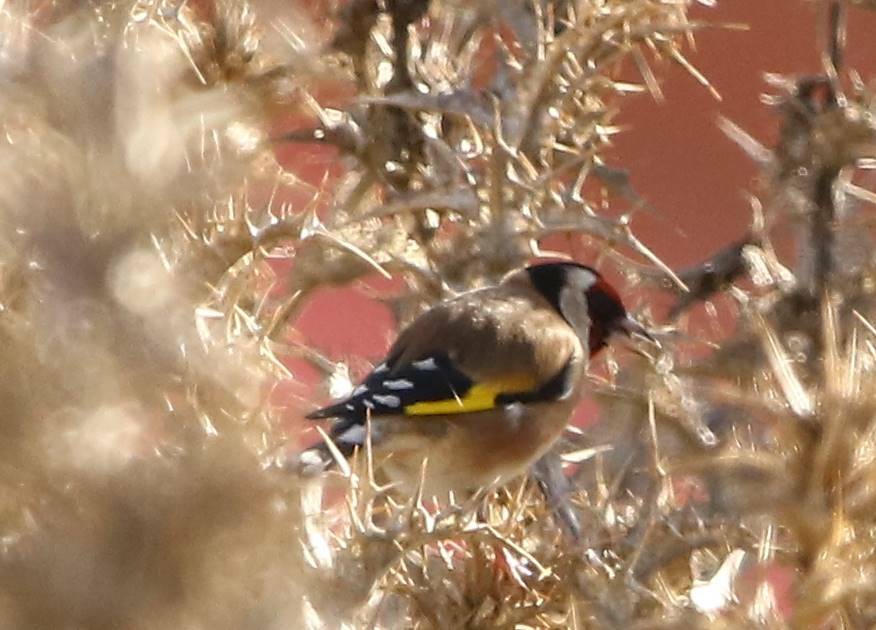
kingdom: Animalia
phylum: Chordata
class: Aves
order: Passeriformes
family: Fringillidae
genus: Carduelis
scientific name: Carduelis carduelis
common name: European goldfinch
